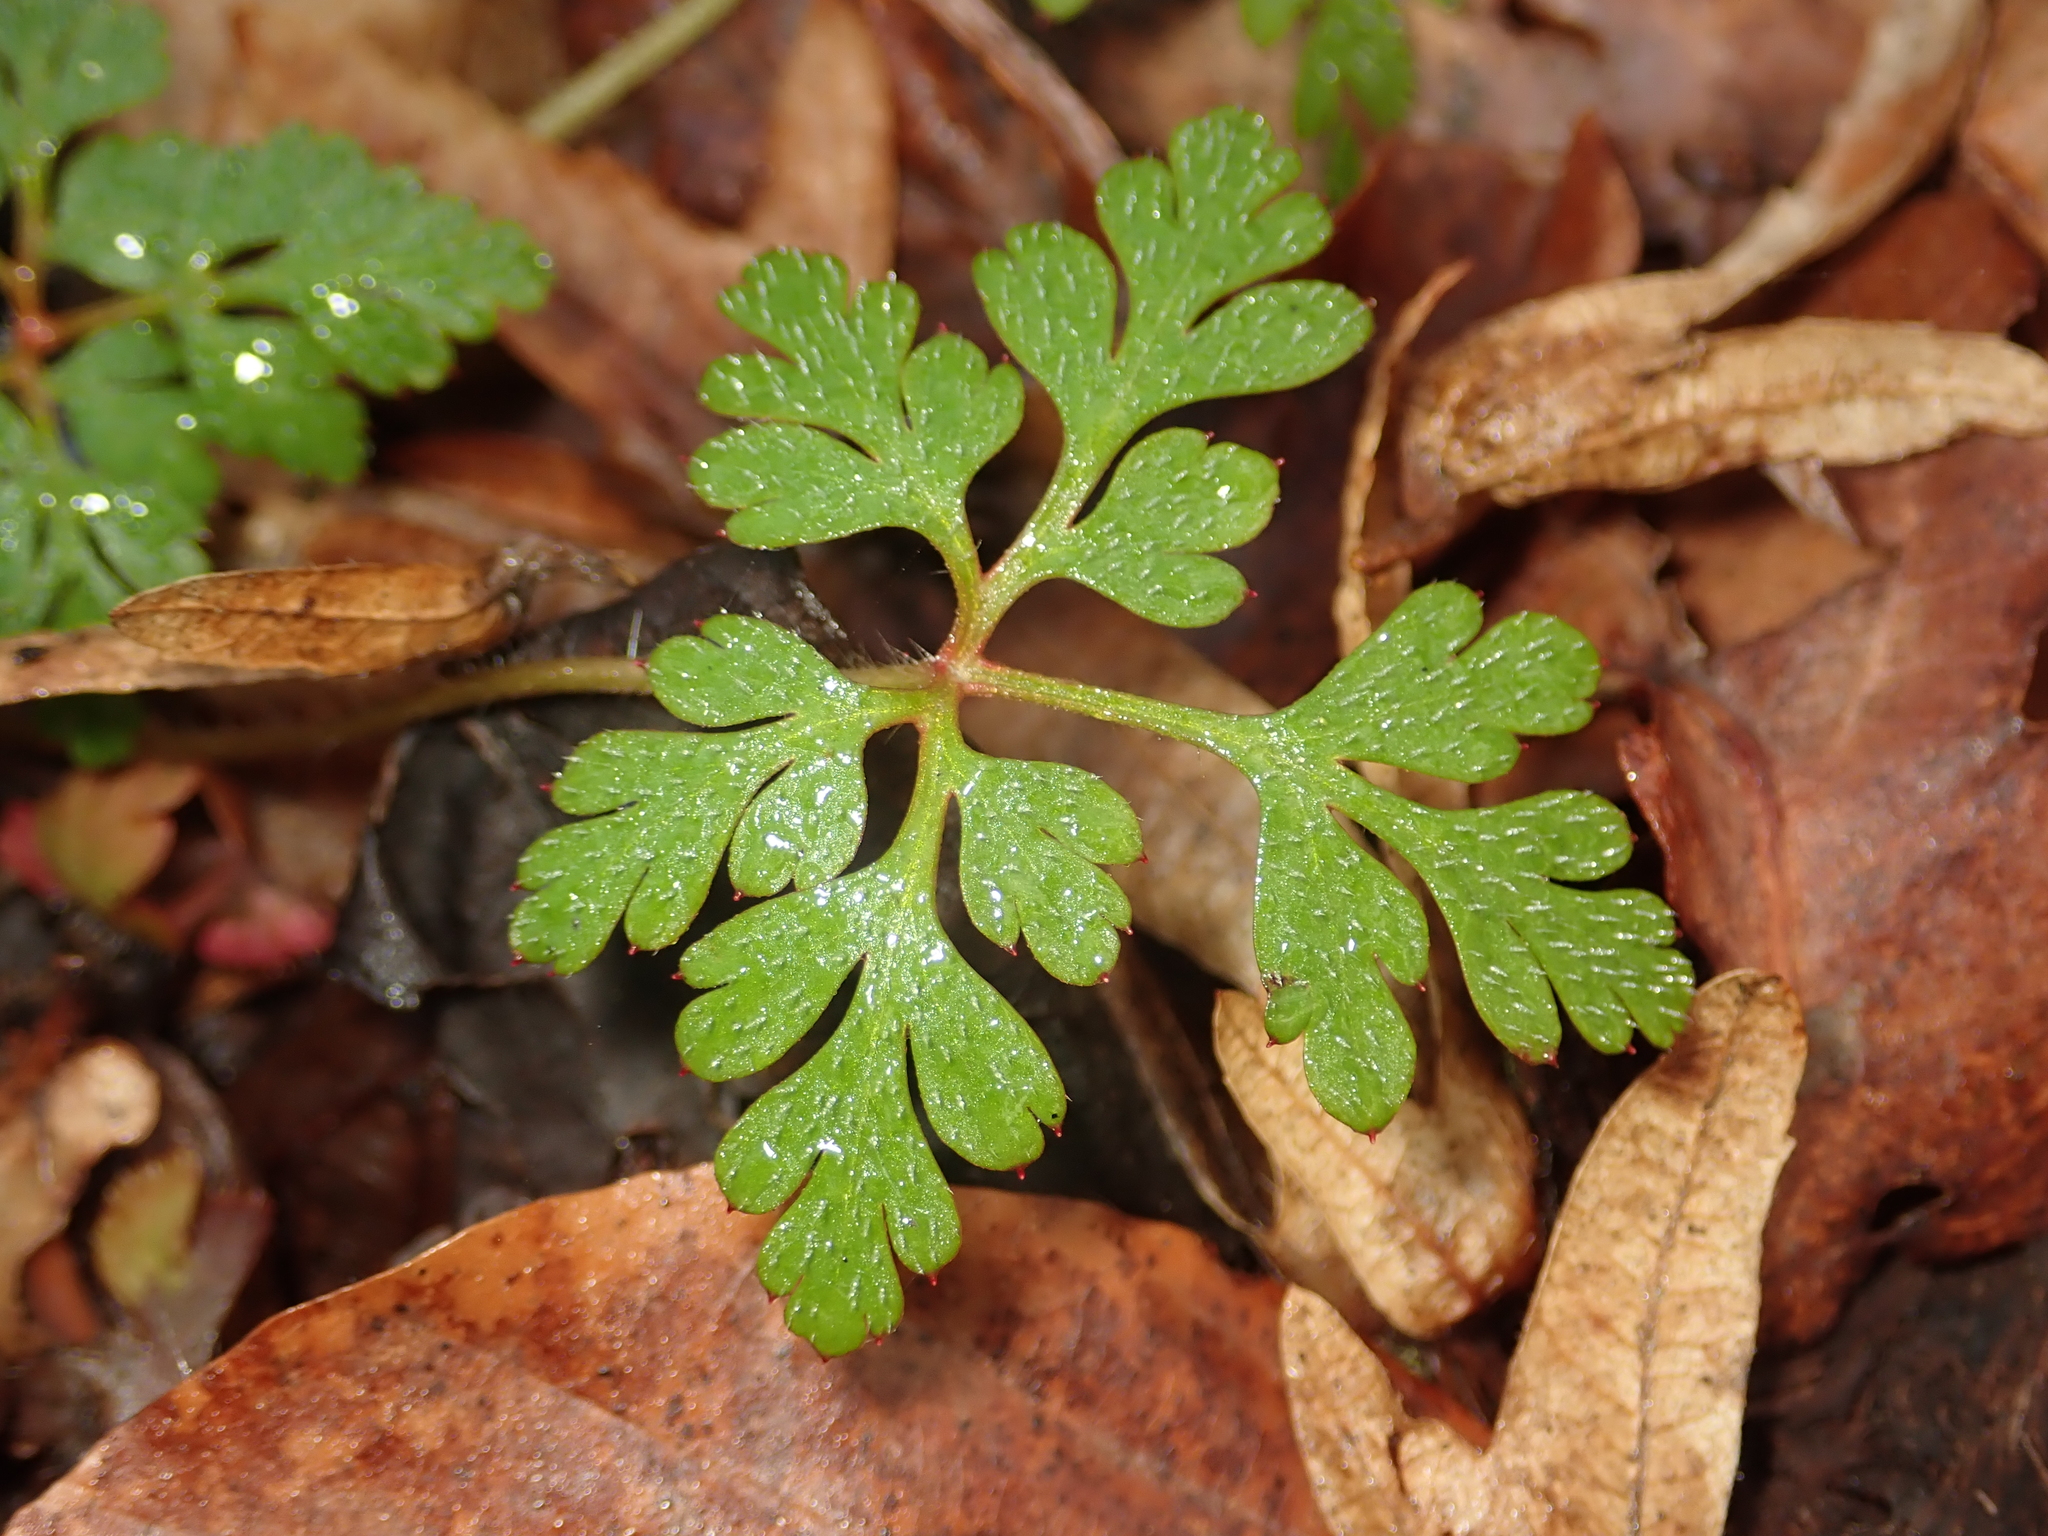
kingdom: Plantae
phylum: Tracheophyta
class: Magnoliopsida
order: Geraniales
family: Geraniaceae
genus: Geranium
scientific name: Geranium robertianum
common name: Herb-robert
